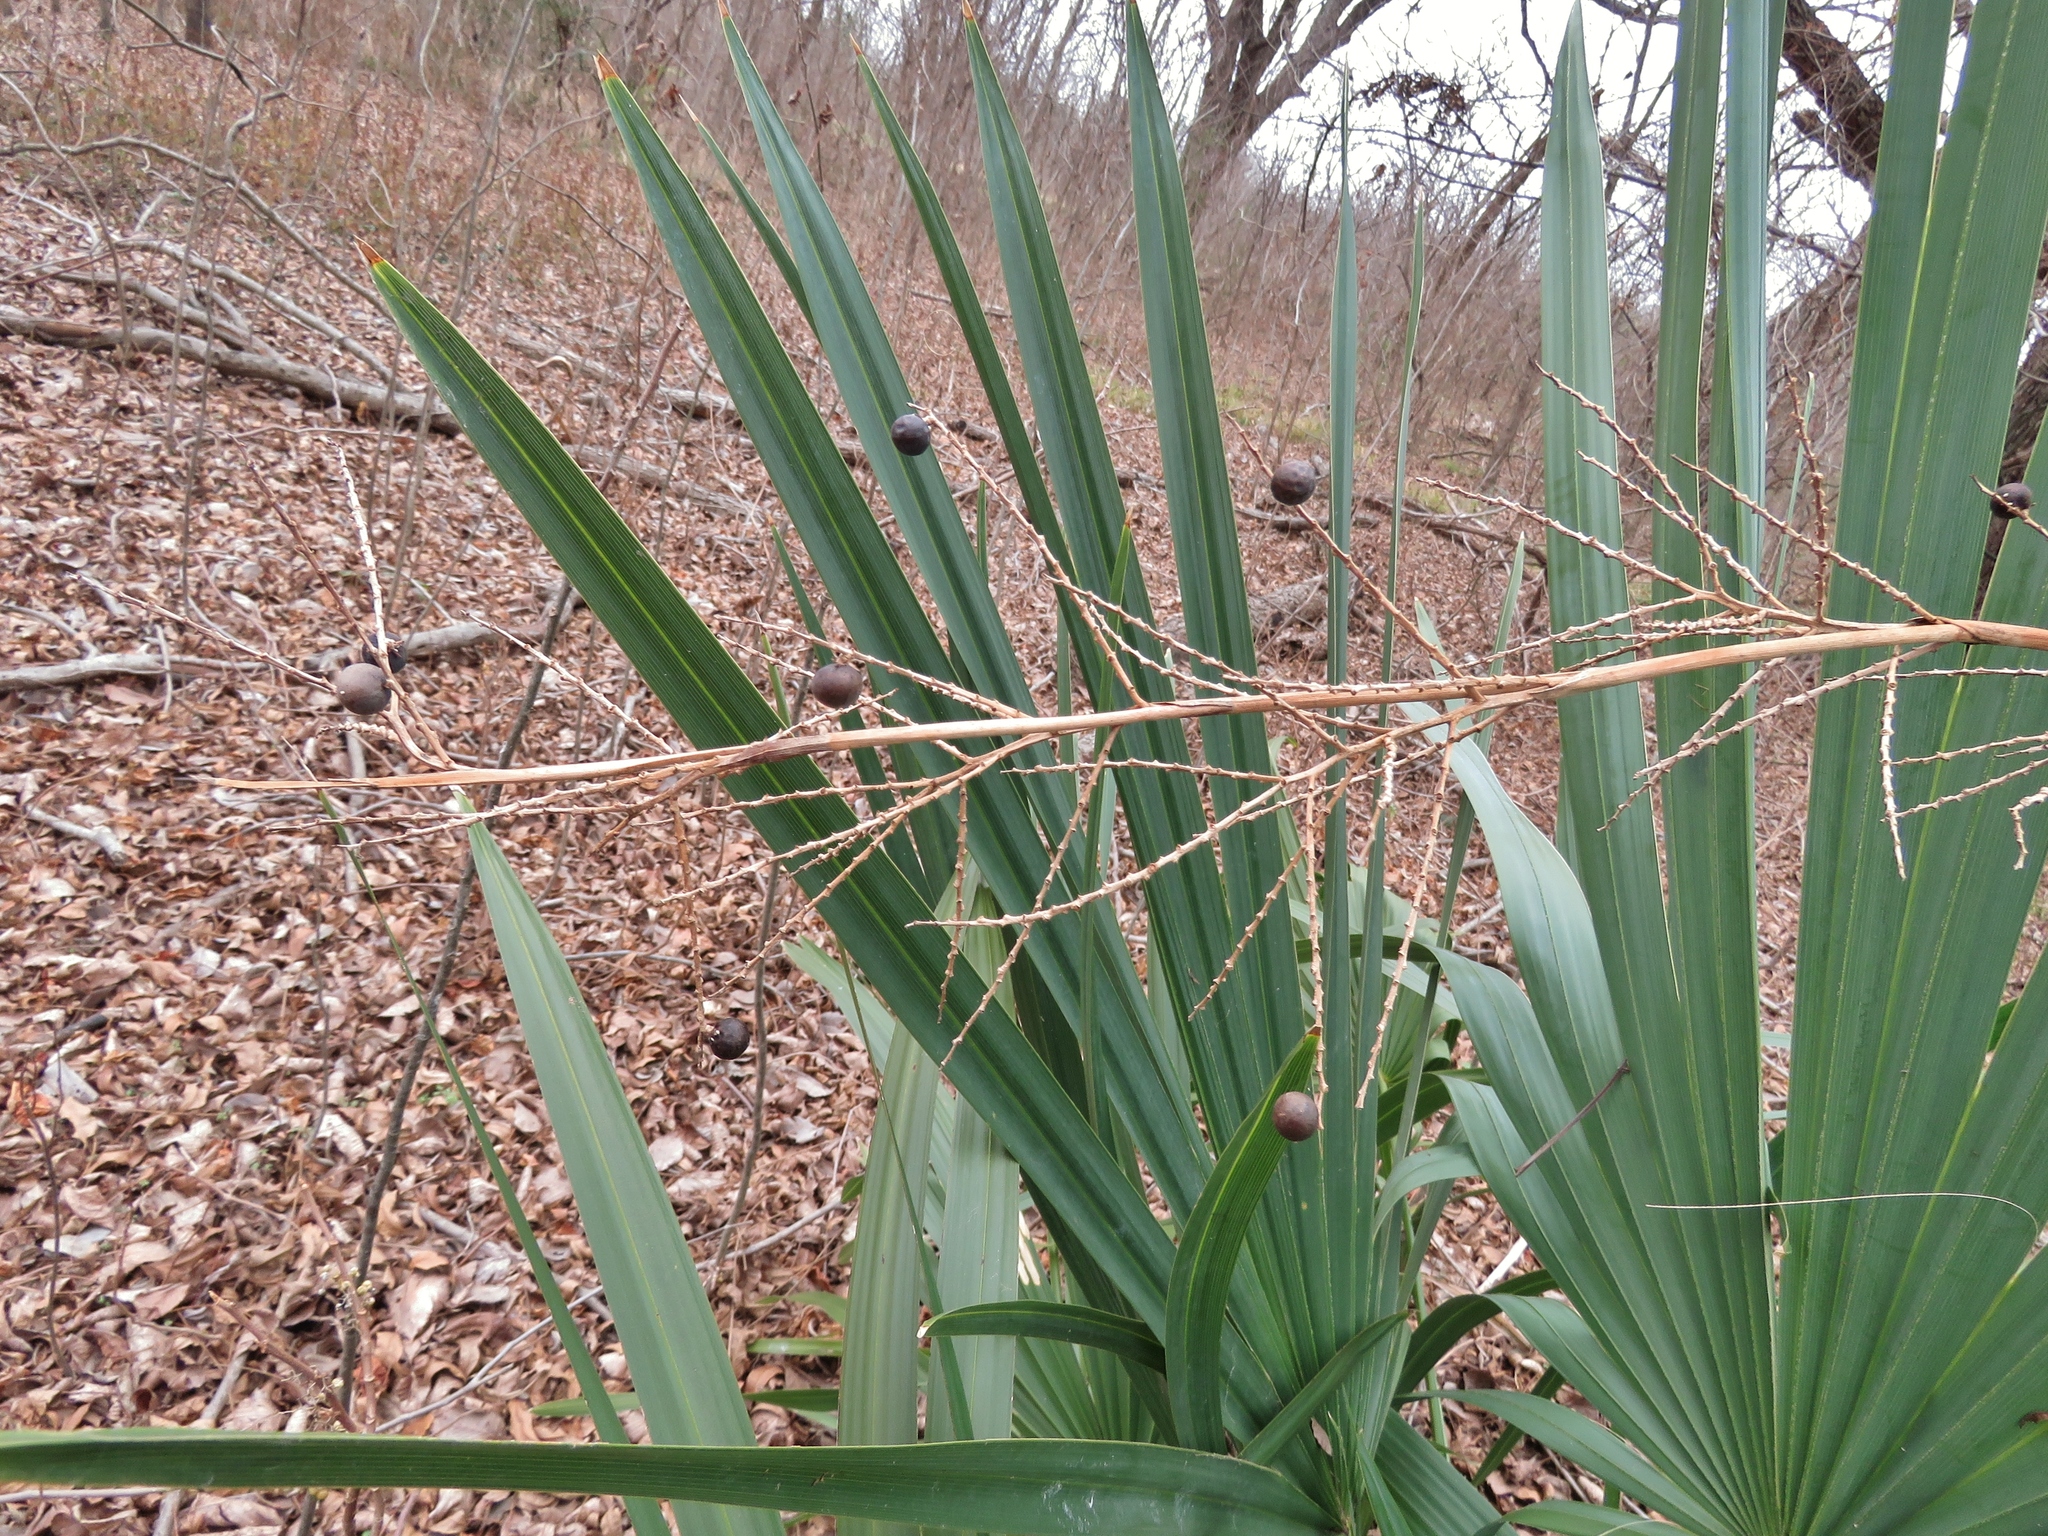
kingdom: Plantae
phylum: Tracheophyta
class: Liliopsida
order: Arecales
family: Arecaceae
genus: Sabal
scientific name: Sabal minor
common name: Dwarf palmetto
